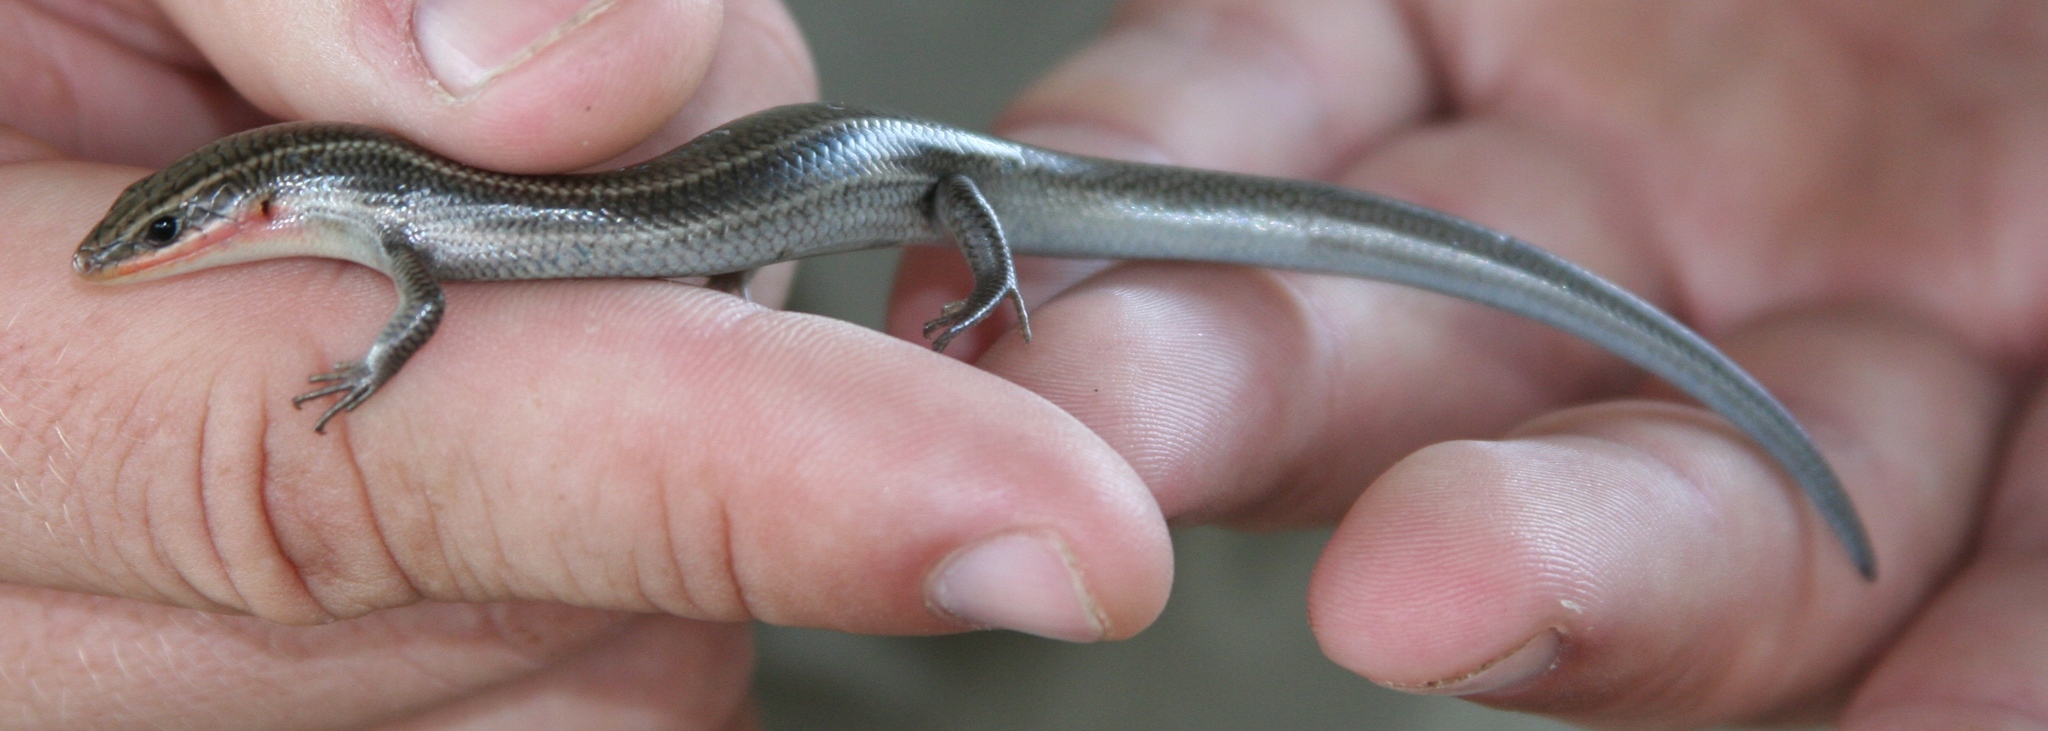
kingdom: Animalia
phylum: Chordata
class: Squamata
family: Scincidae
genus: Plestiodon
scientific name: Plestiodon tetragrammus
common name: Four-lined skink
